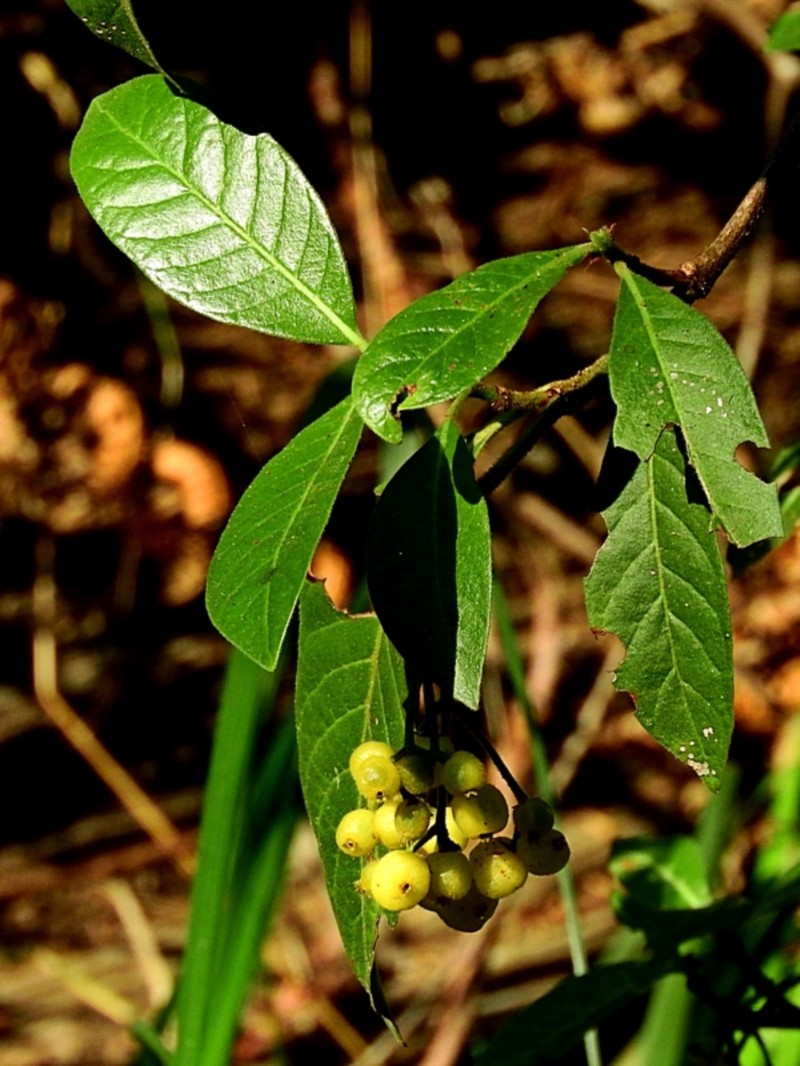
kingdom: Plantae
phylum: Tracheophyta
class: Magnoliopsida
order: Gentianales
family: Rubiaceae
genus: Psychotria
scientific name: Psychotria loniceroides
